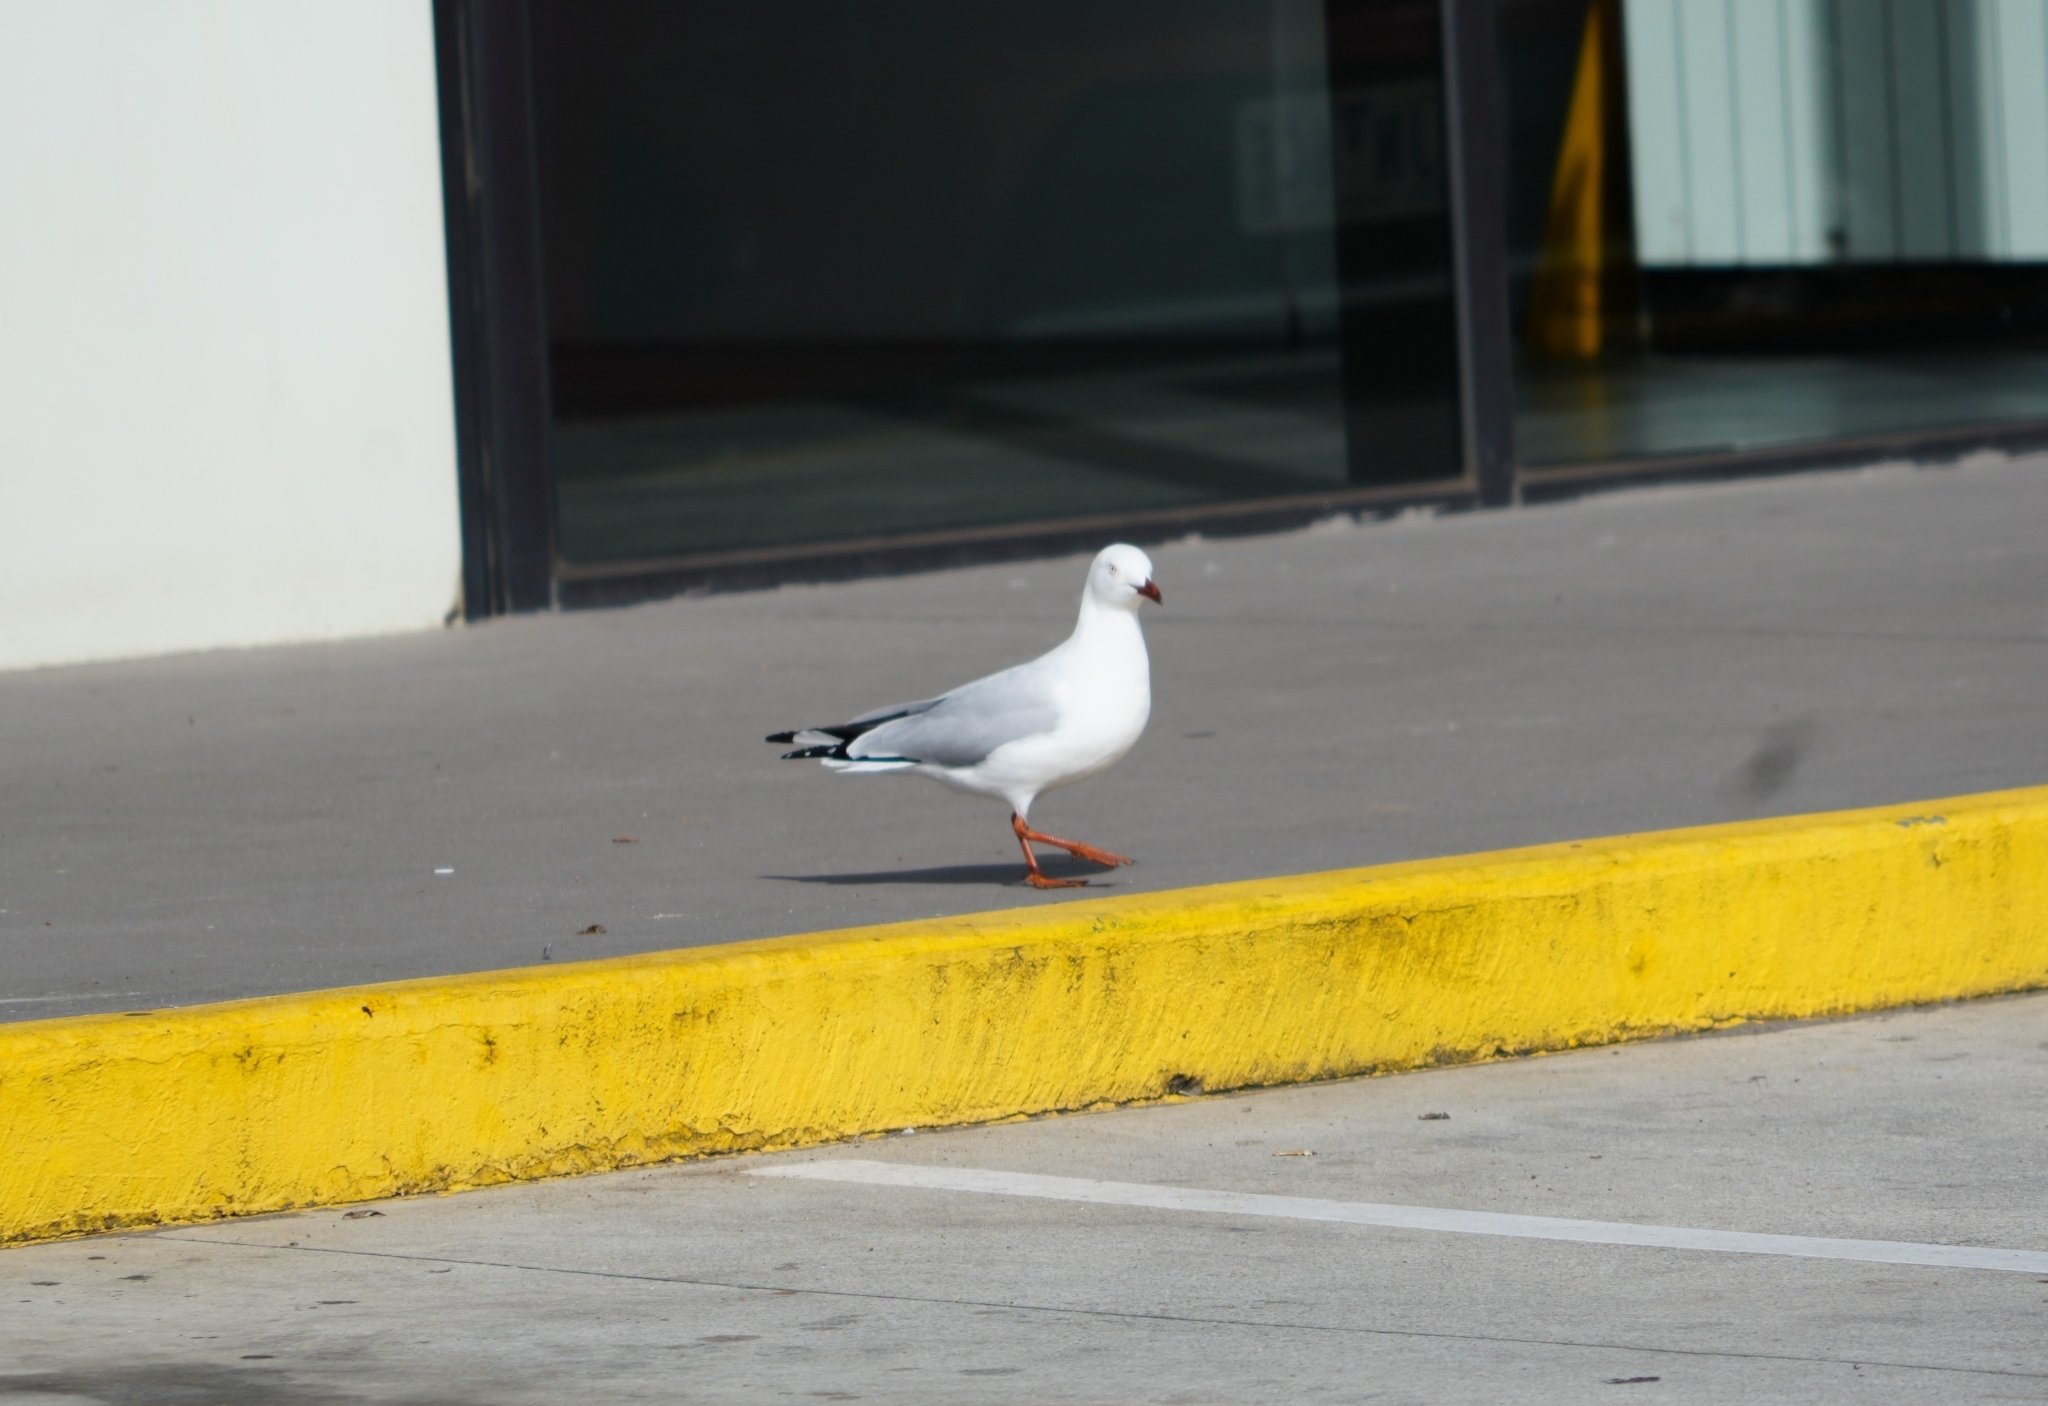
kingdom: Animalia
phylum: Chordata
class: Aves
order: Charadriiformes
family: Laridae
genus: Chroicocephalus
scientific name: Chroicocephalus novaehollandiae
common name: Silver gull
